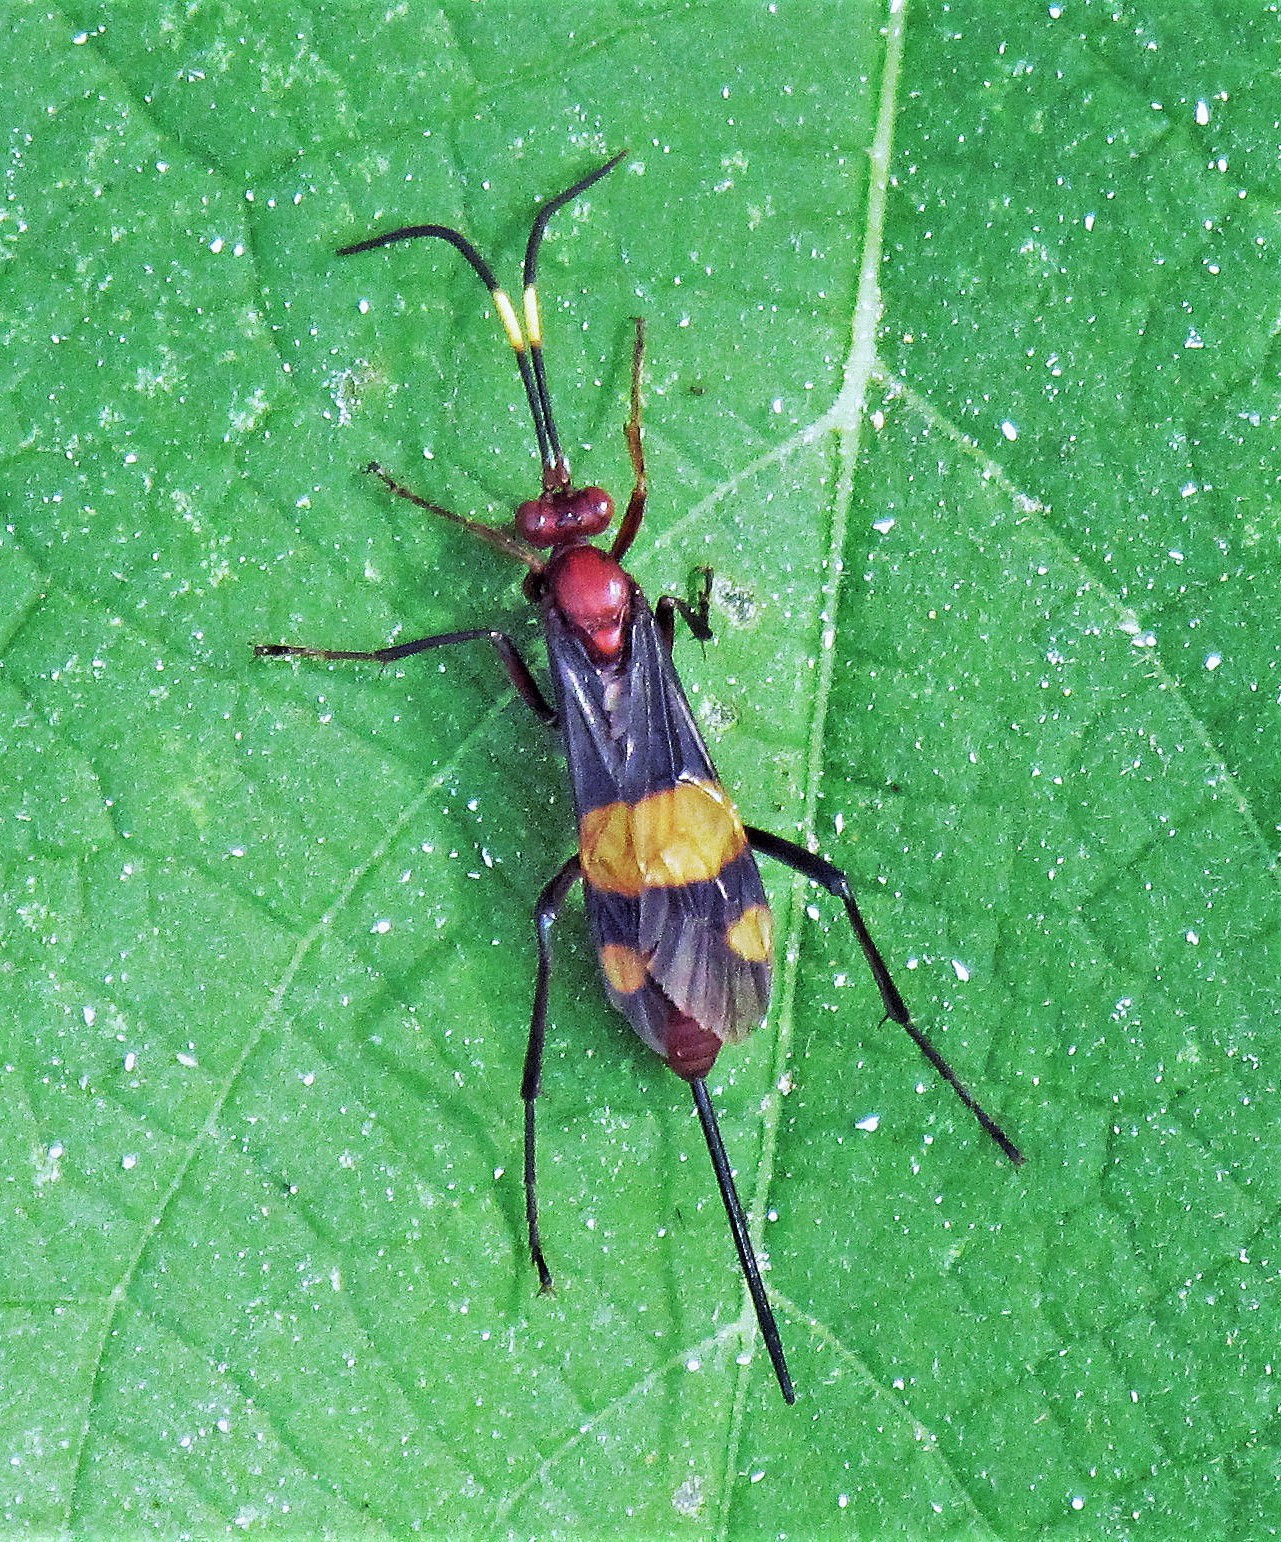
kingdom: Animalia
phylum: Arthropoda
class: Insecta
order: Hymenoptera
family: Ichneumonidae
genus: Compsocryptus
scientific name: Compsocryptus melanostigma
